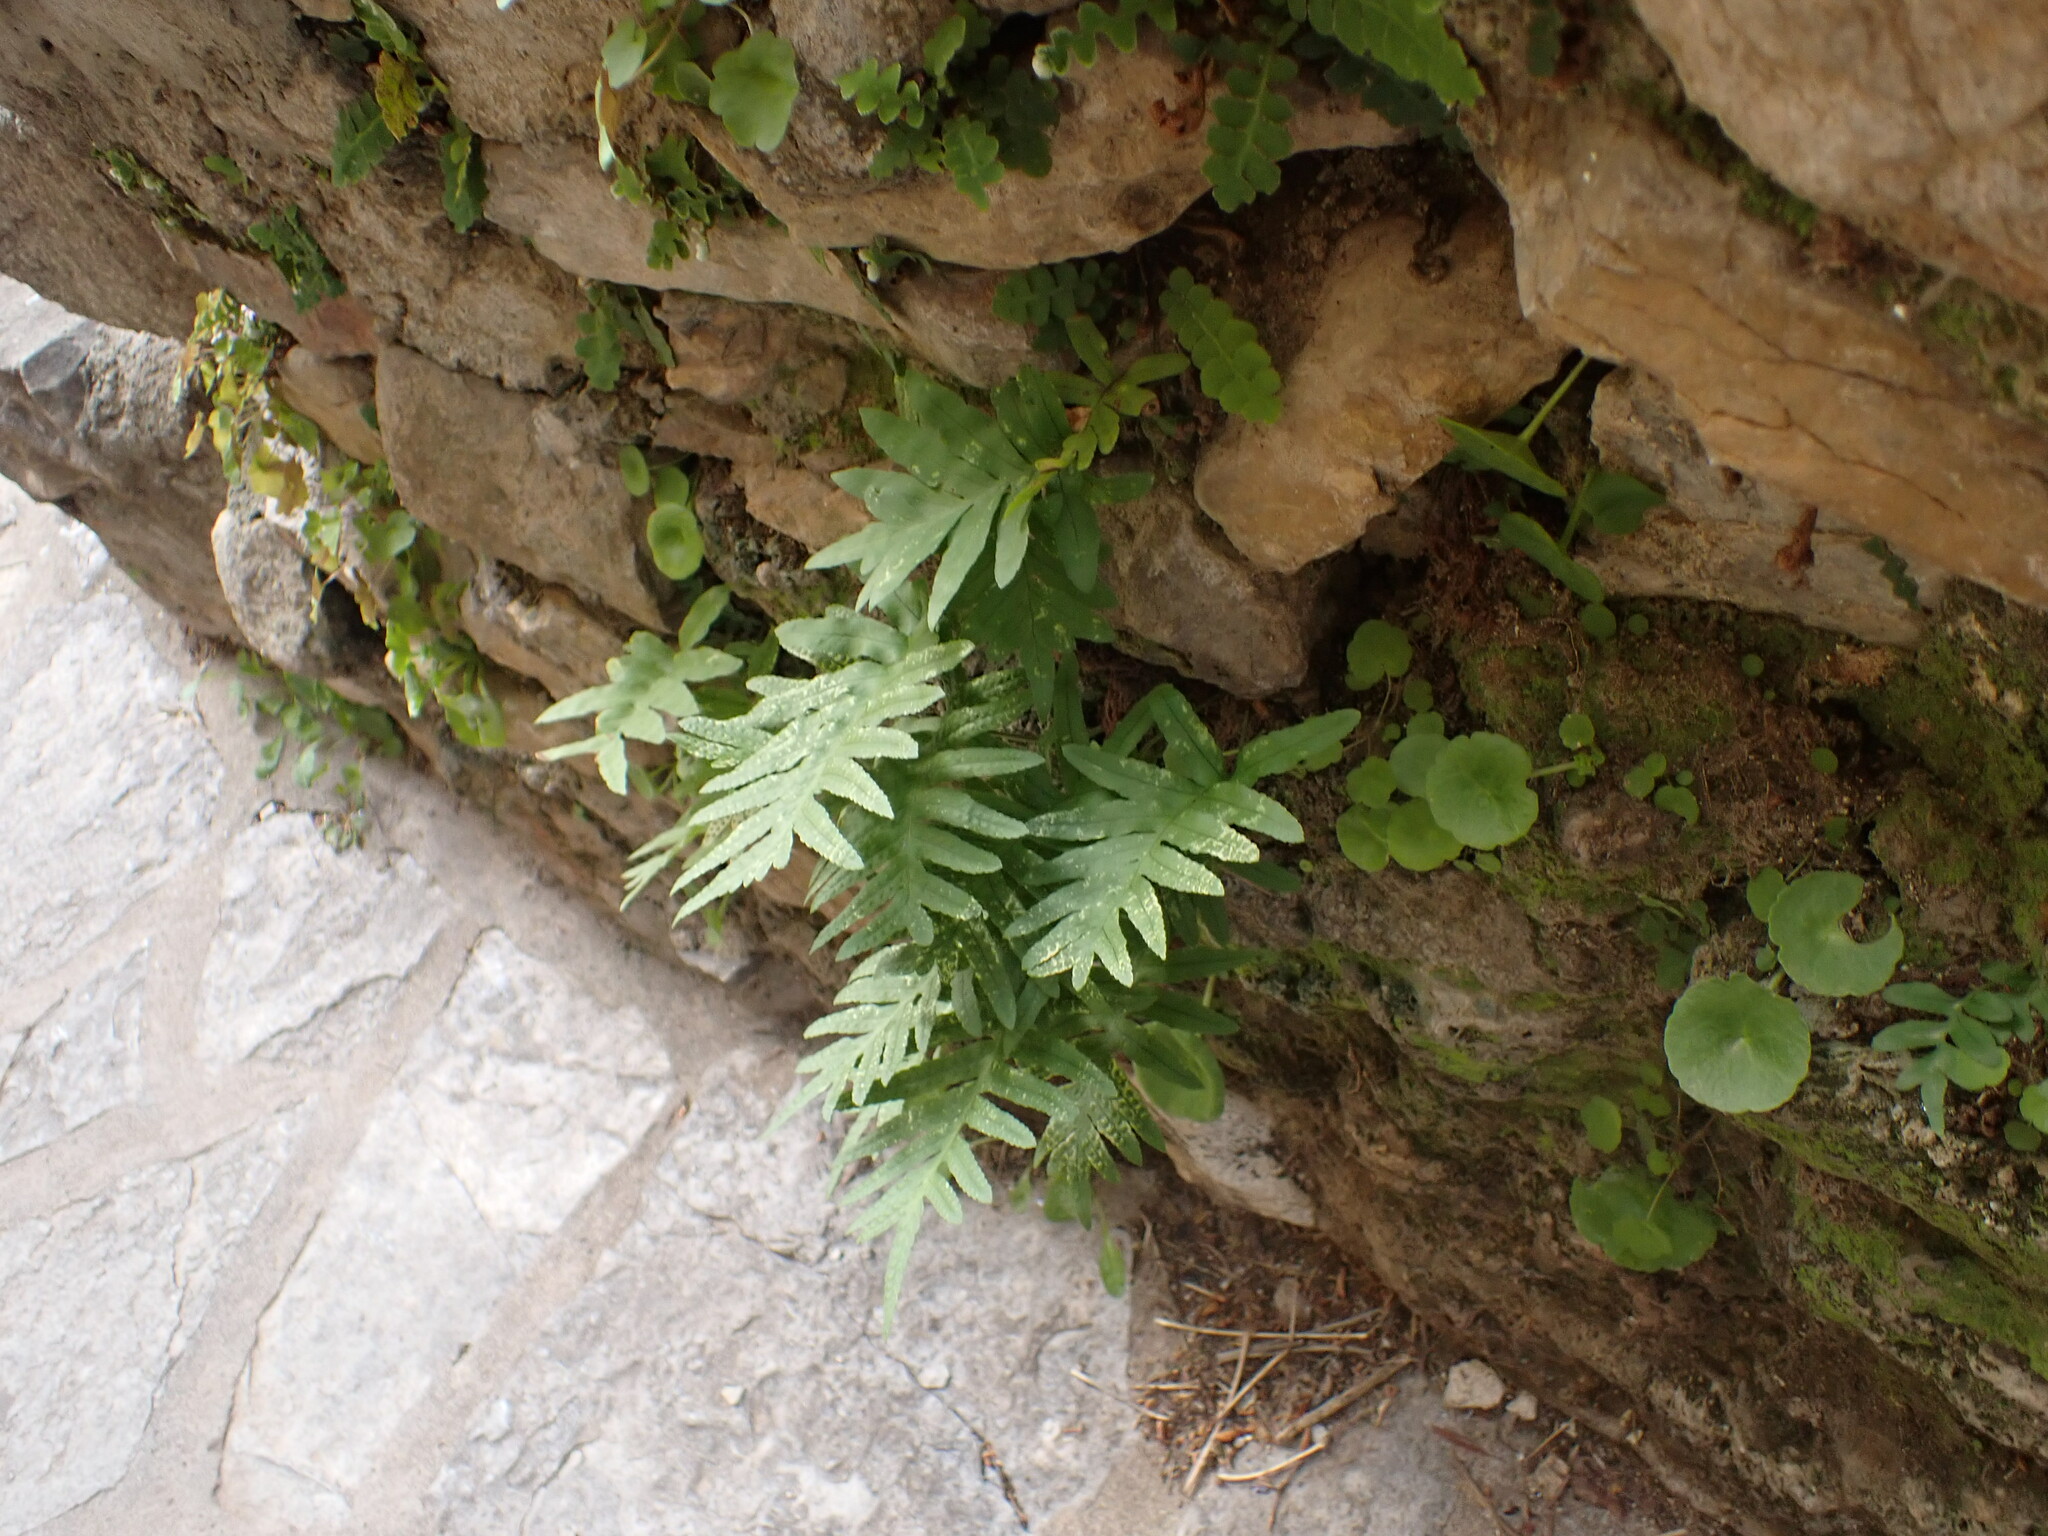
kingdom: Plantae
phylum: Tracheophyta
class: Polypodiopsida
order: Polypodiales
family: Polypodiaceae
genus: Polypodium
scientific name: Polypodium cambricum
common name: Southern polypody
